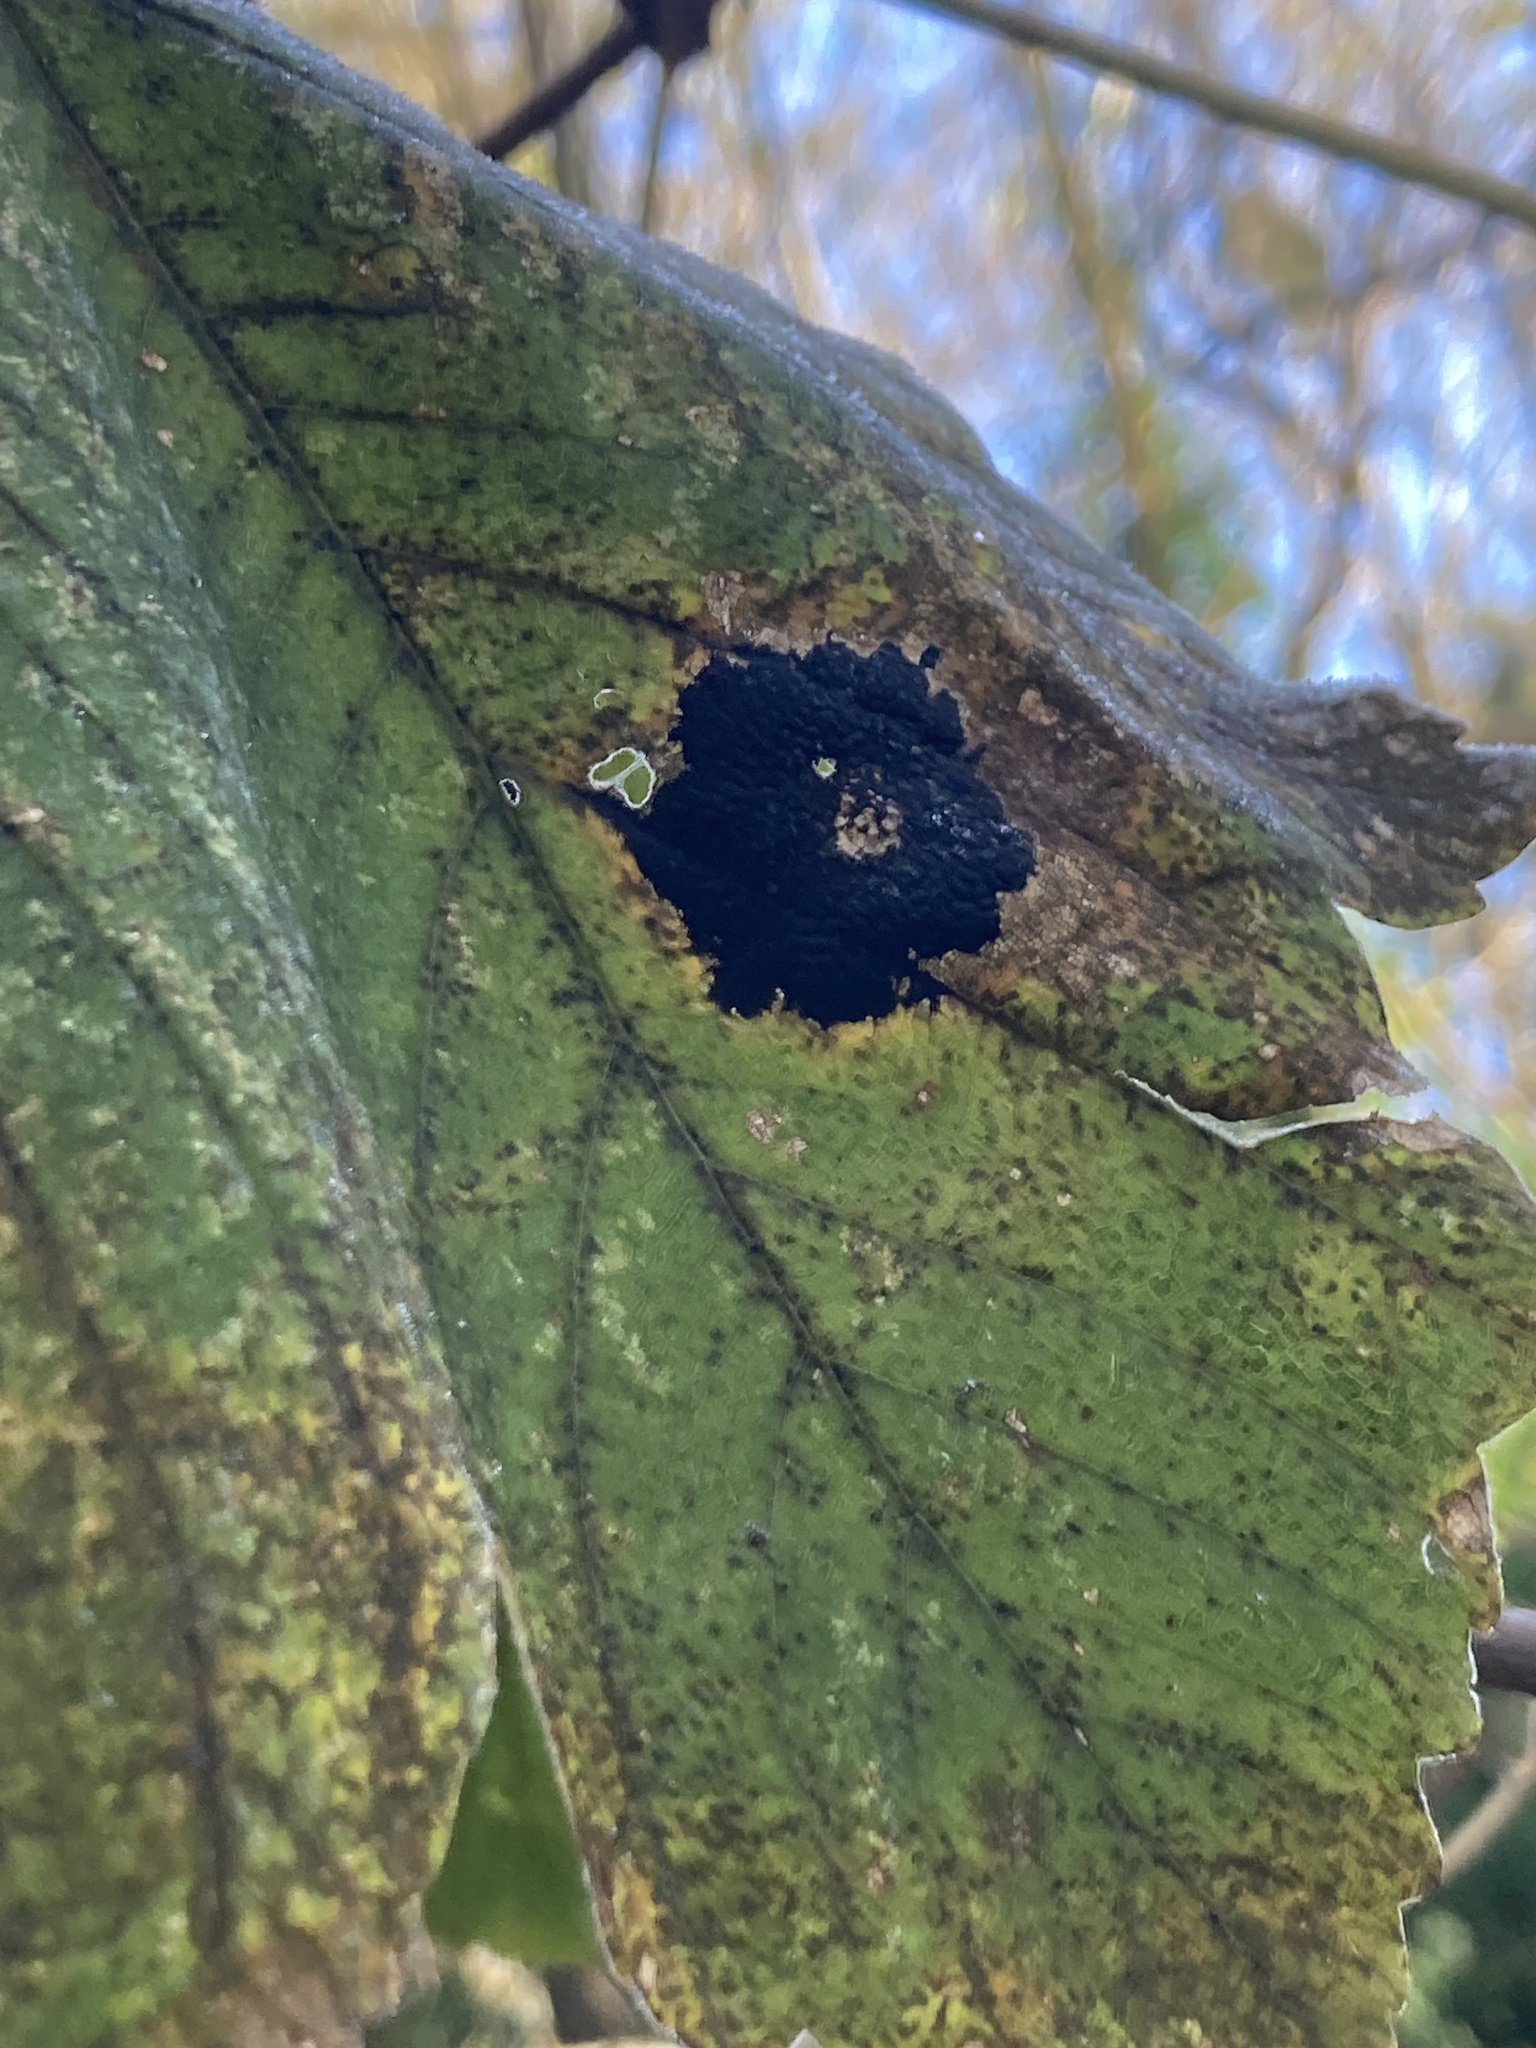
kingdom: Fungi
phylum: Ascomycota
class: Leotiomycetes
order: Rhytismatales
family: Rhytismataceae
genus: Rhytisma
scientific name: Rhytisma acerinum
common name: European tar spot
